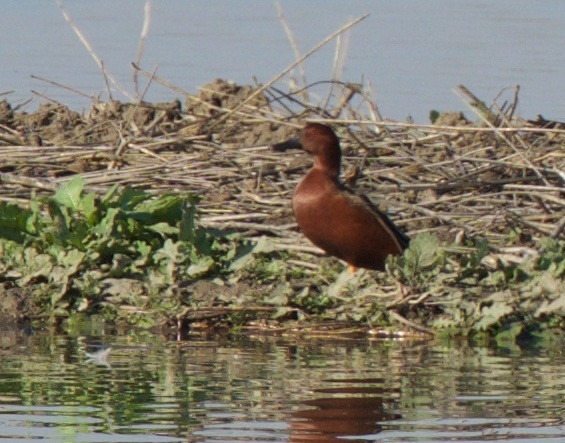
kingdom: Animalia
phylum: Chordata
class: Aves
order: Anseriformes
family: Anatidae
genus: Spatula
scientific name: Spatula cyanoptera
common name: Cinnamon teal
